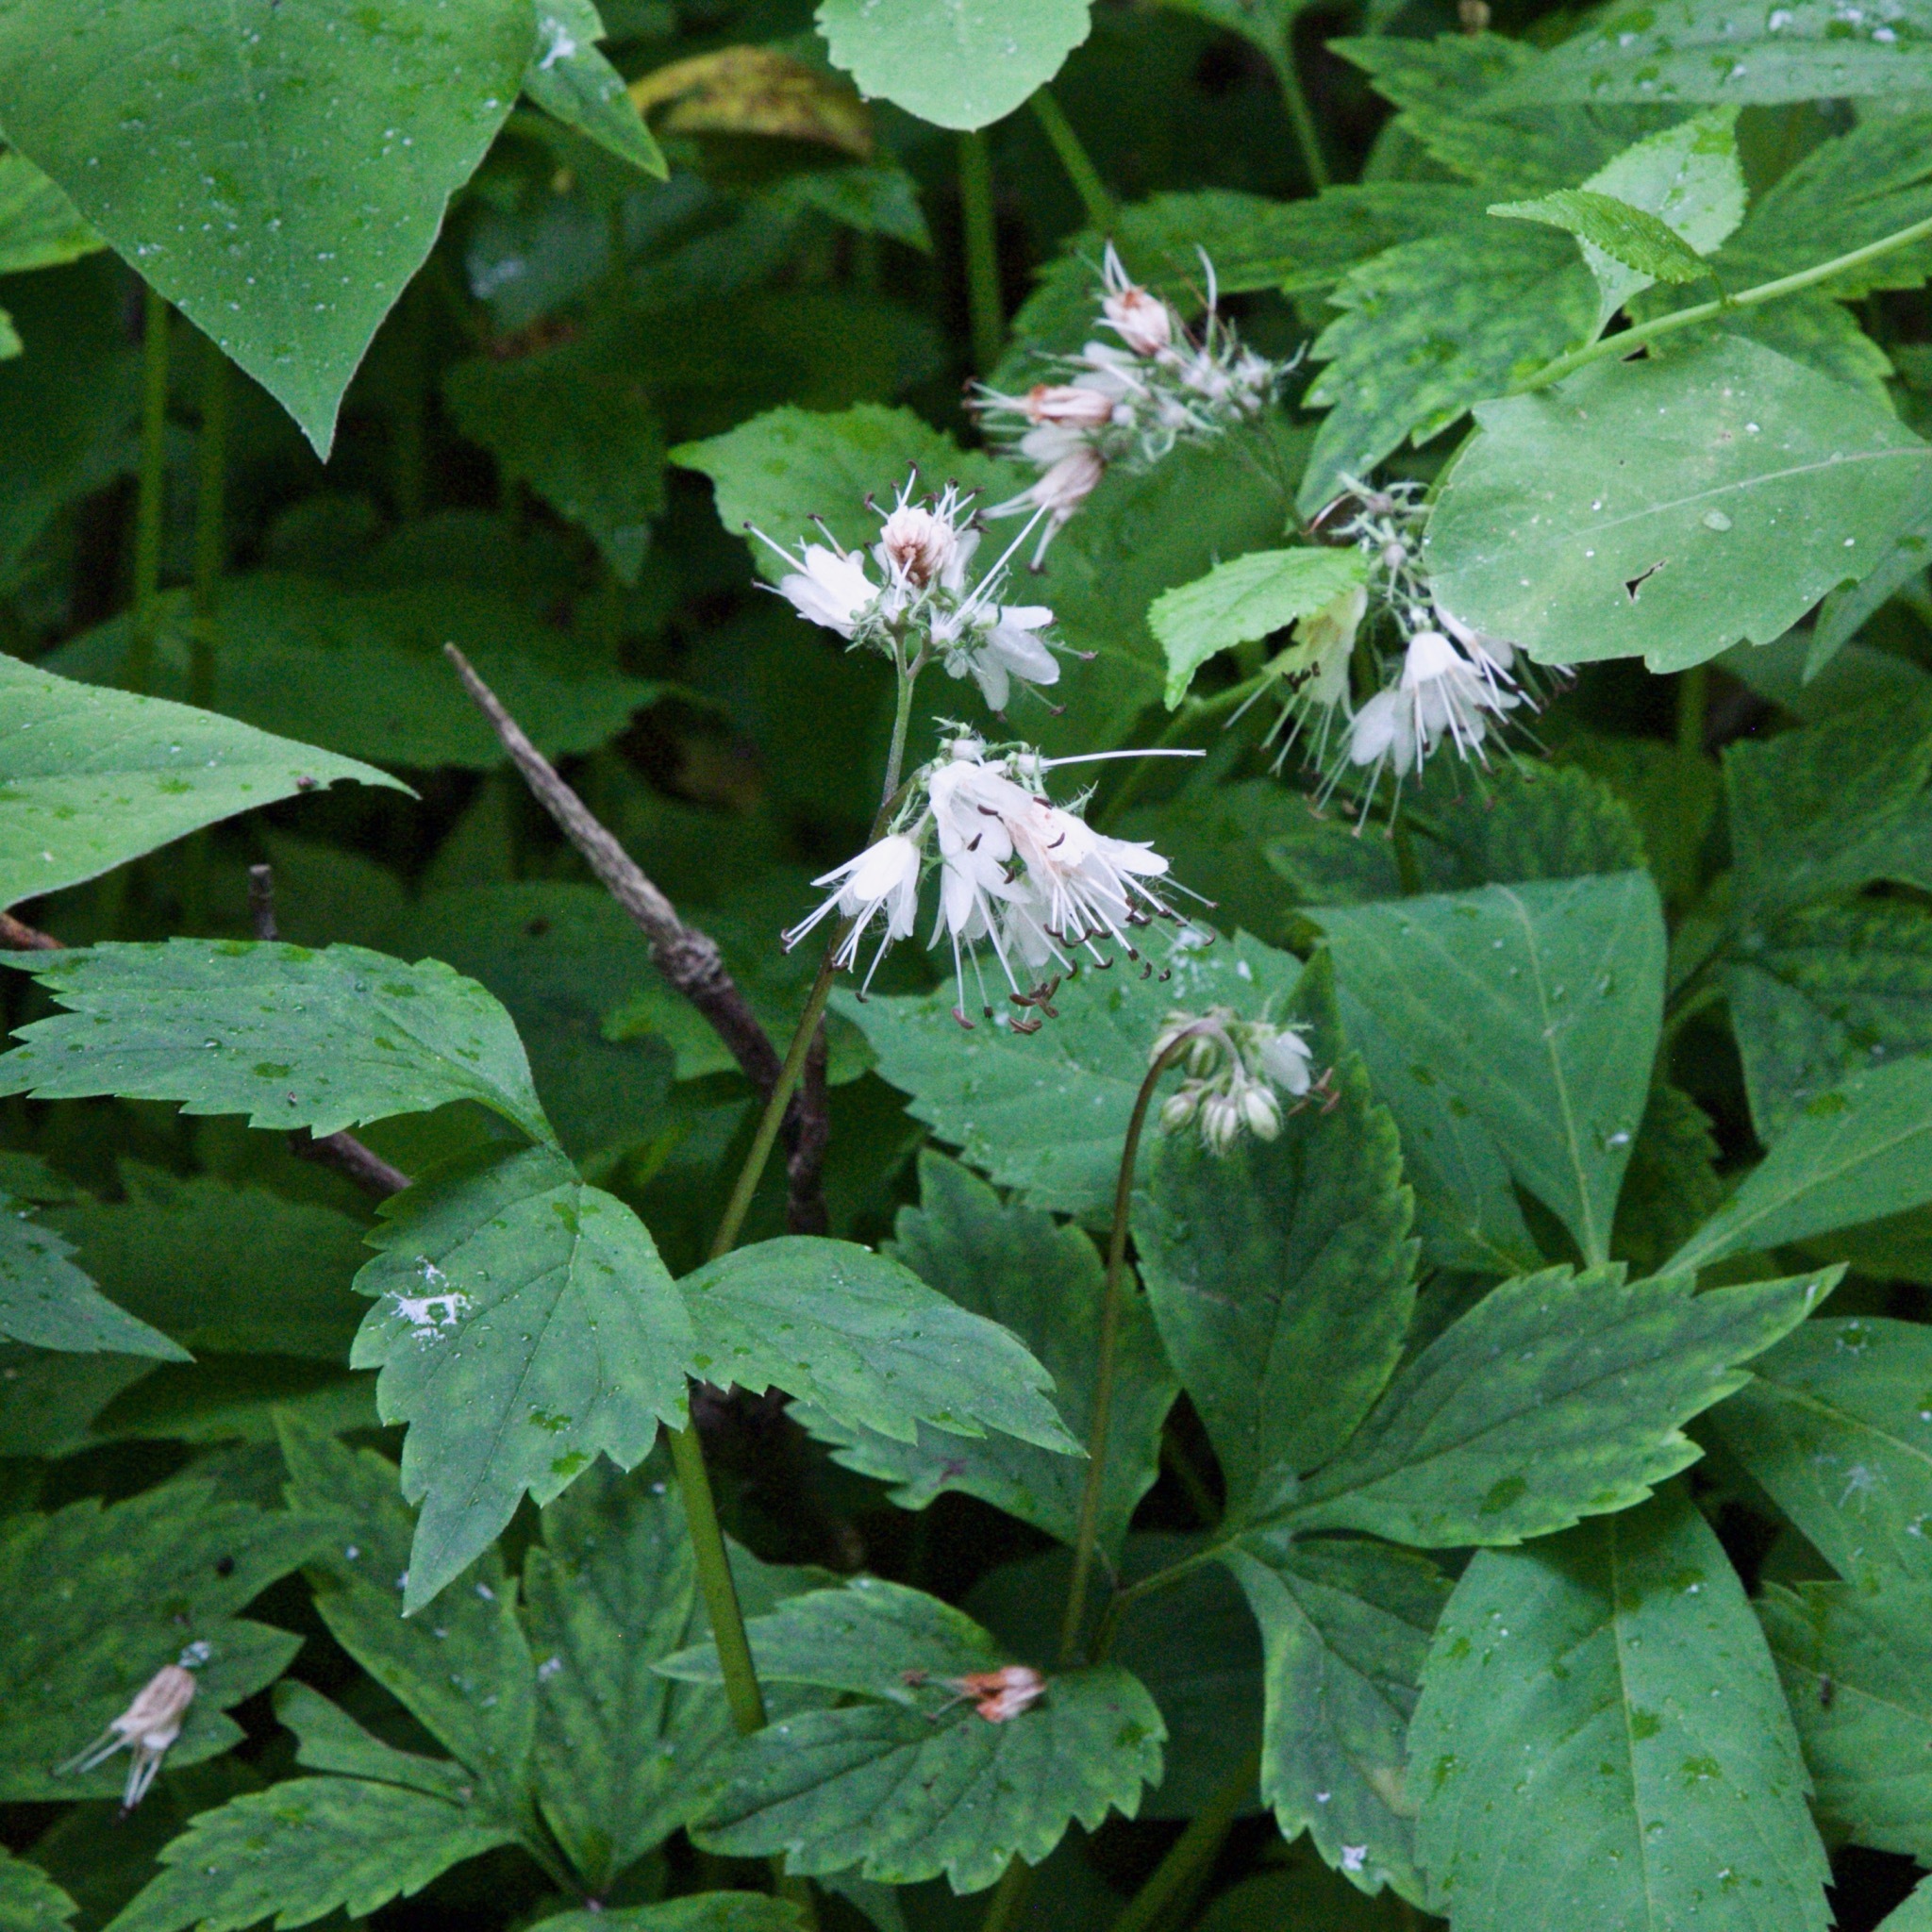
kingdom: Plantae
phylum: Tracheophyta
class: Magnoliopsida
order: Boraginales
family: Hydrophyllaceae
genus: Hydrophyllum
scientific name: Hydrophyllum virginianum
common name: Virginia waterleaf
